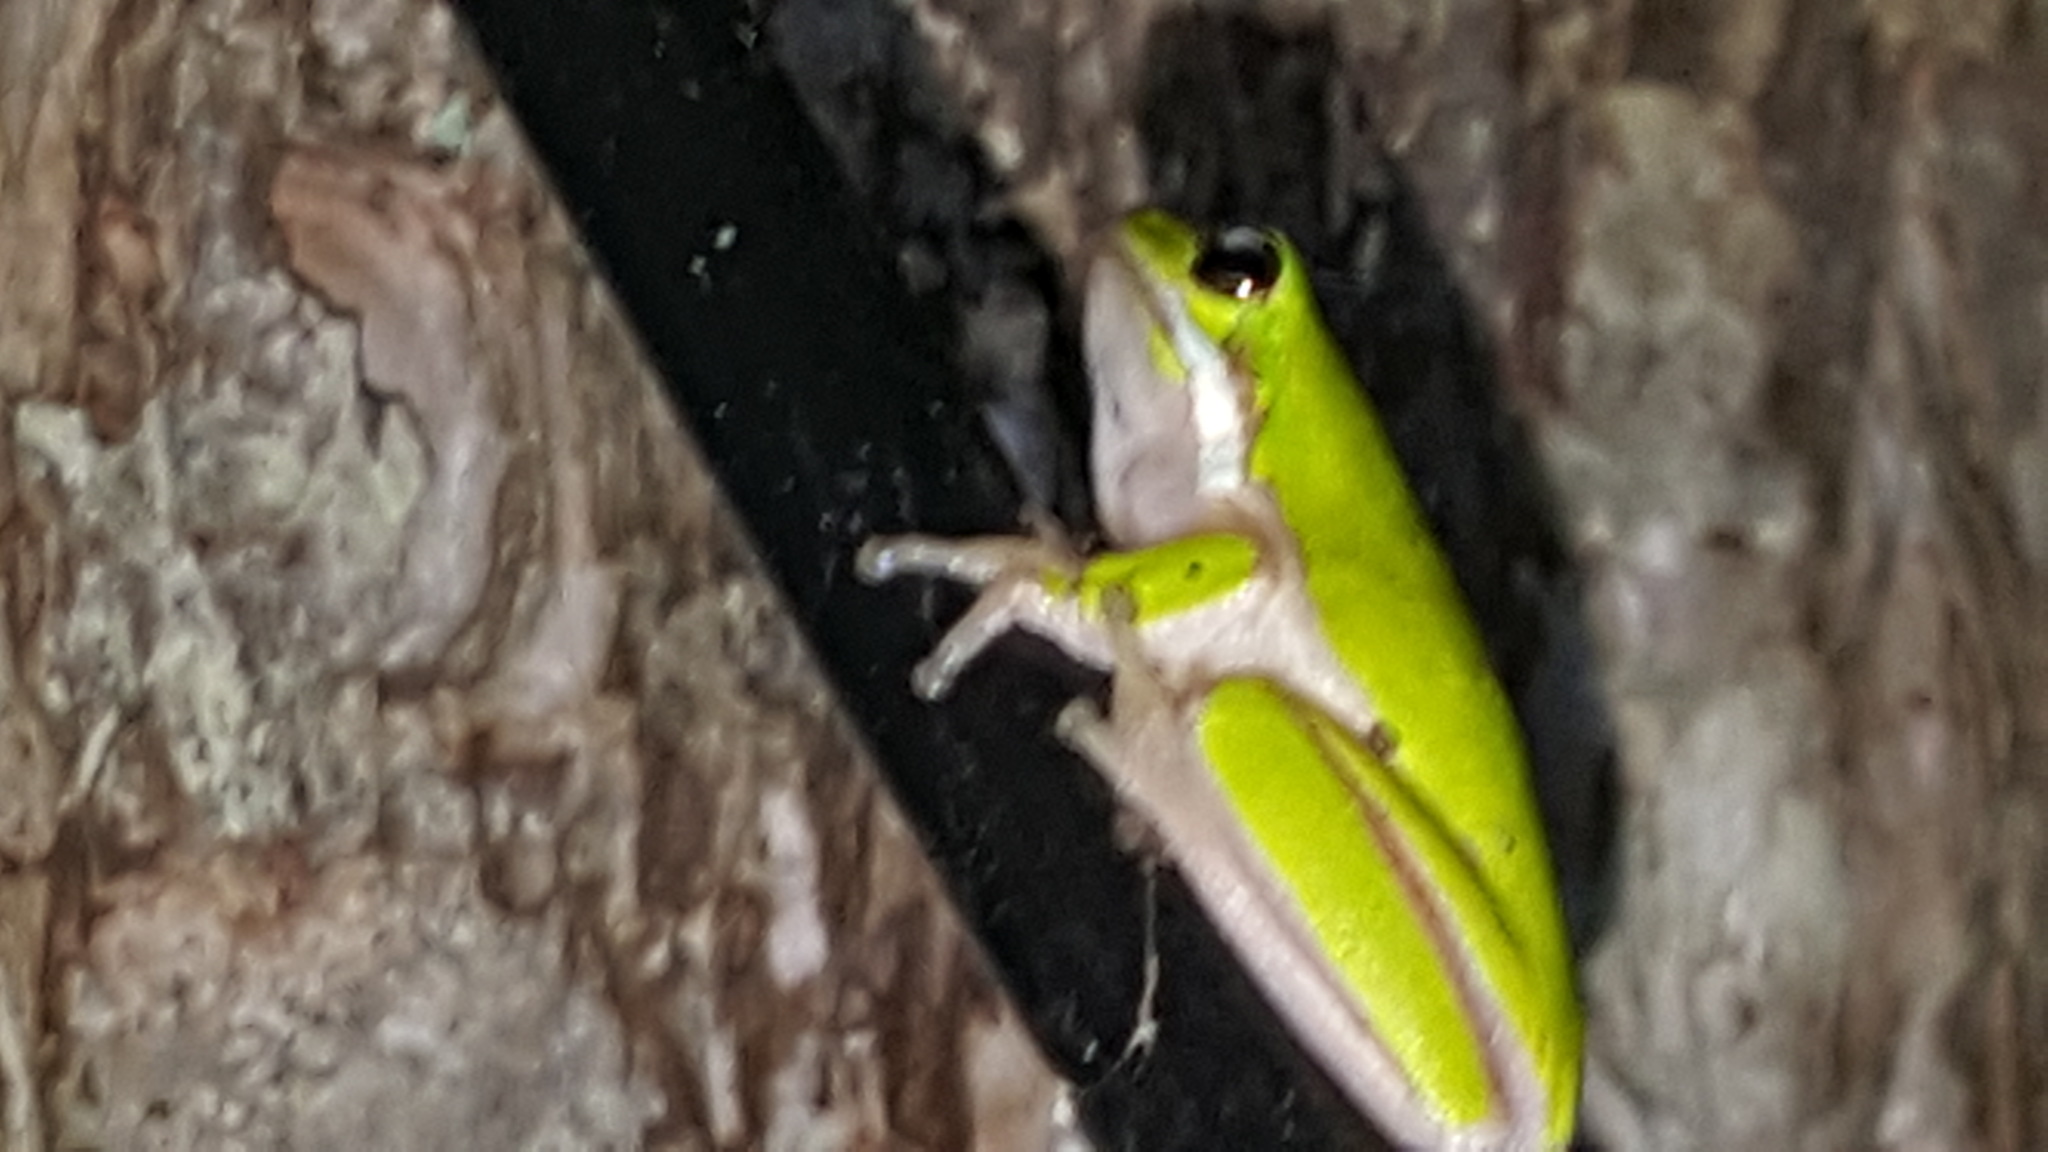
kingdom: Animalia
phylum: Chordata
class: Amphibia
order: Anura
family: Pelodryadidae
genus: Litoria
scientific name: Litoria fallax
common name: Eastern dwarf treefrog
